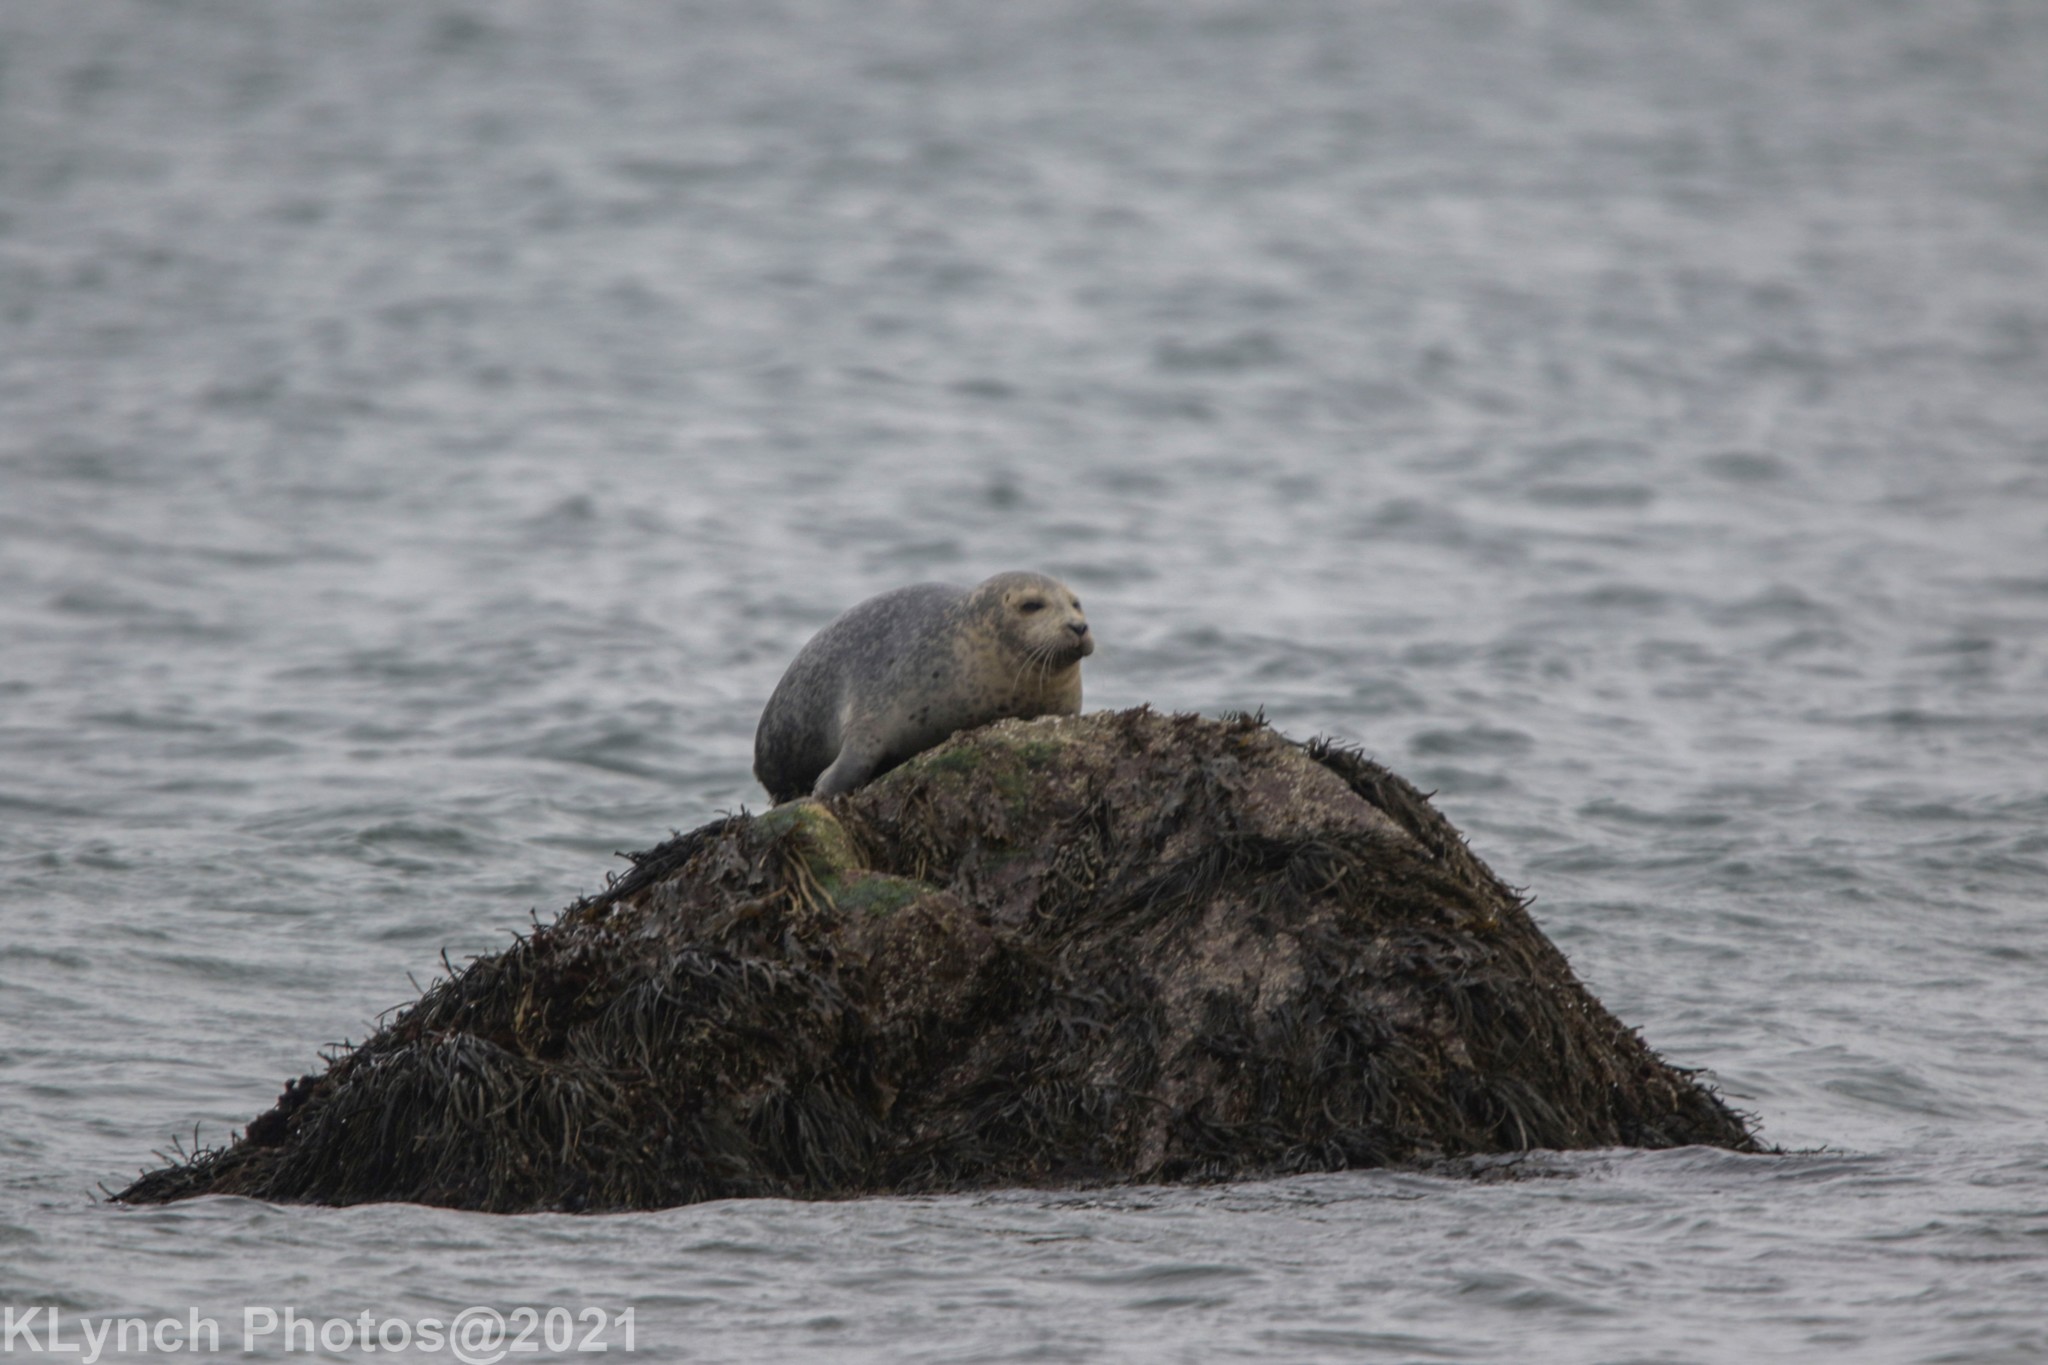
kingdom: Animalia
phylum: Chordata
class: Mammalia
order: Carnivora
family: Phocidae
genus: Phoca
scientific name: Phoca vitulina
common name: Harbor seal
